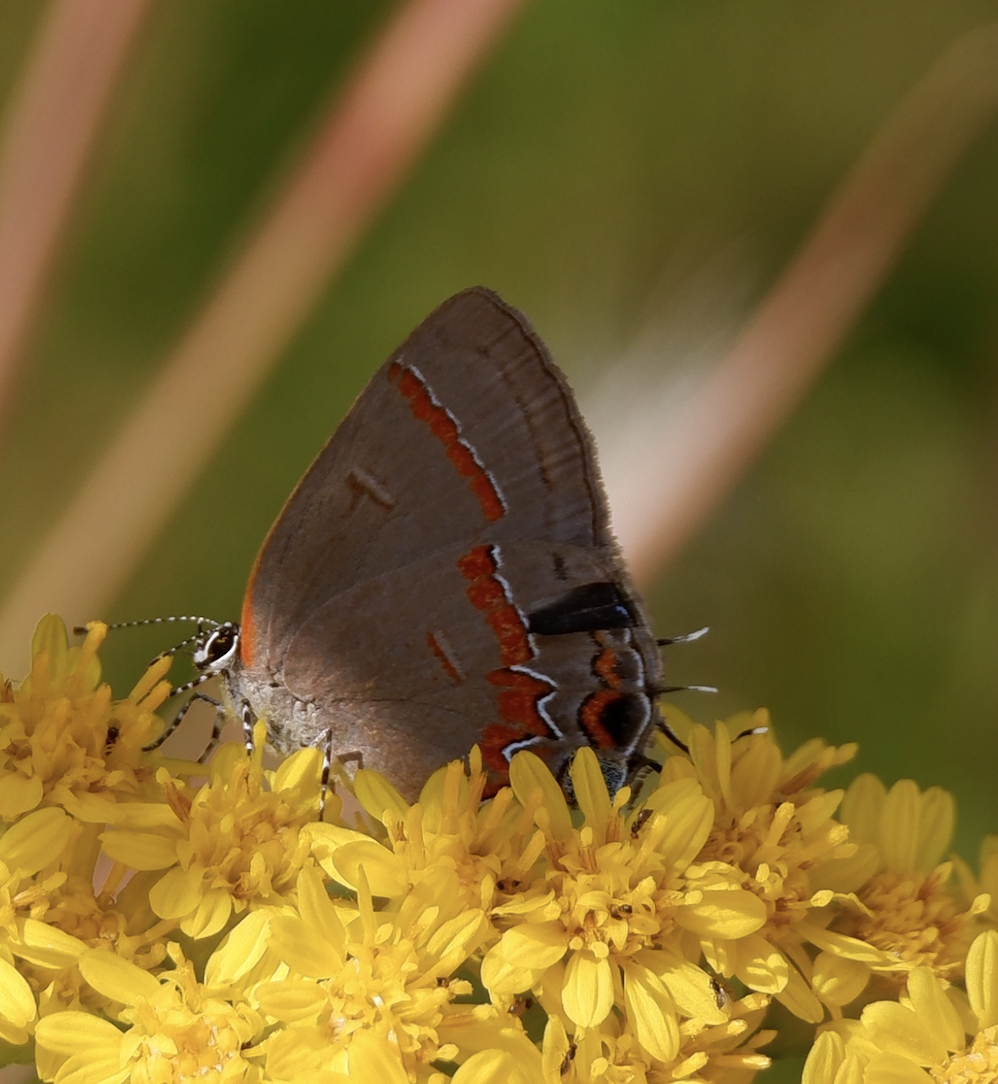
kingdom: Animalia
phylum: Arthropoda
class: Insecta
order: Lepidoptera
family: Lycaenidae
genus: Calycopis
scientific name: Calycopis cecrops
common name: Red-banded hairstreak
